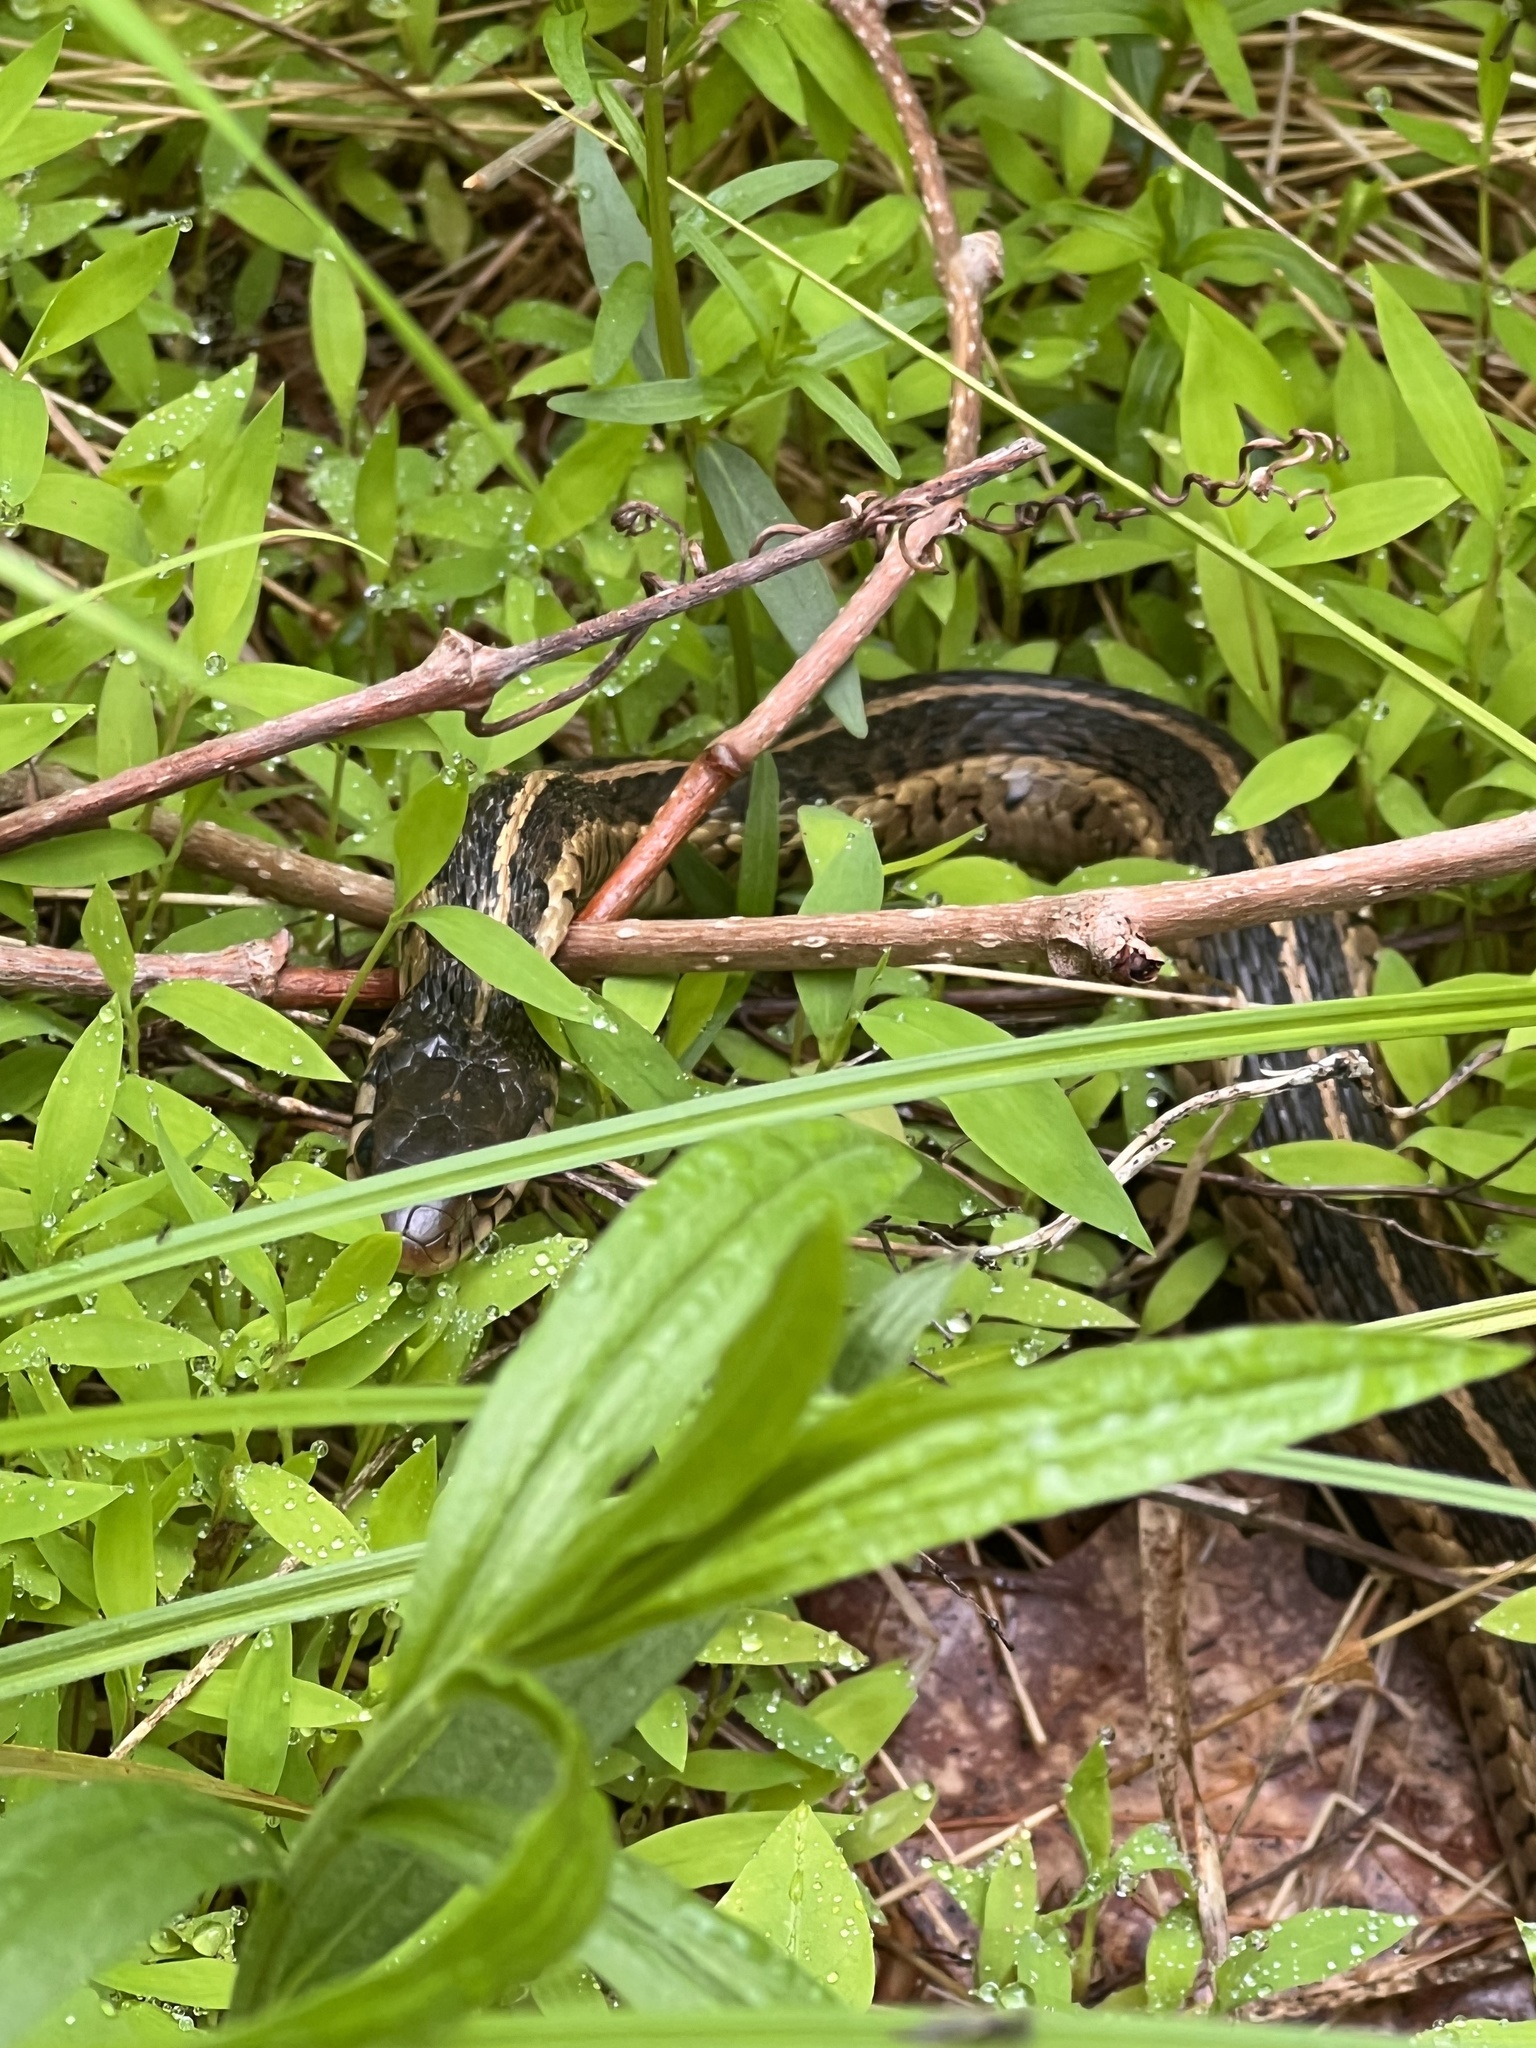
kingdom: Animalia
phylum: Chordata
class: Squamata
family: Colubridae
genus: Thamnophis
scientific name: Thamnophis sirtalis
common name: Common garter snake
